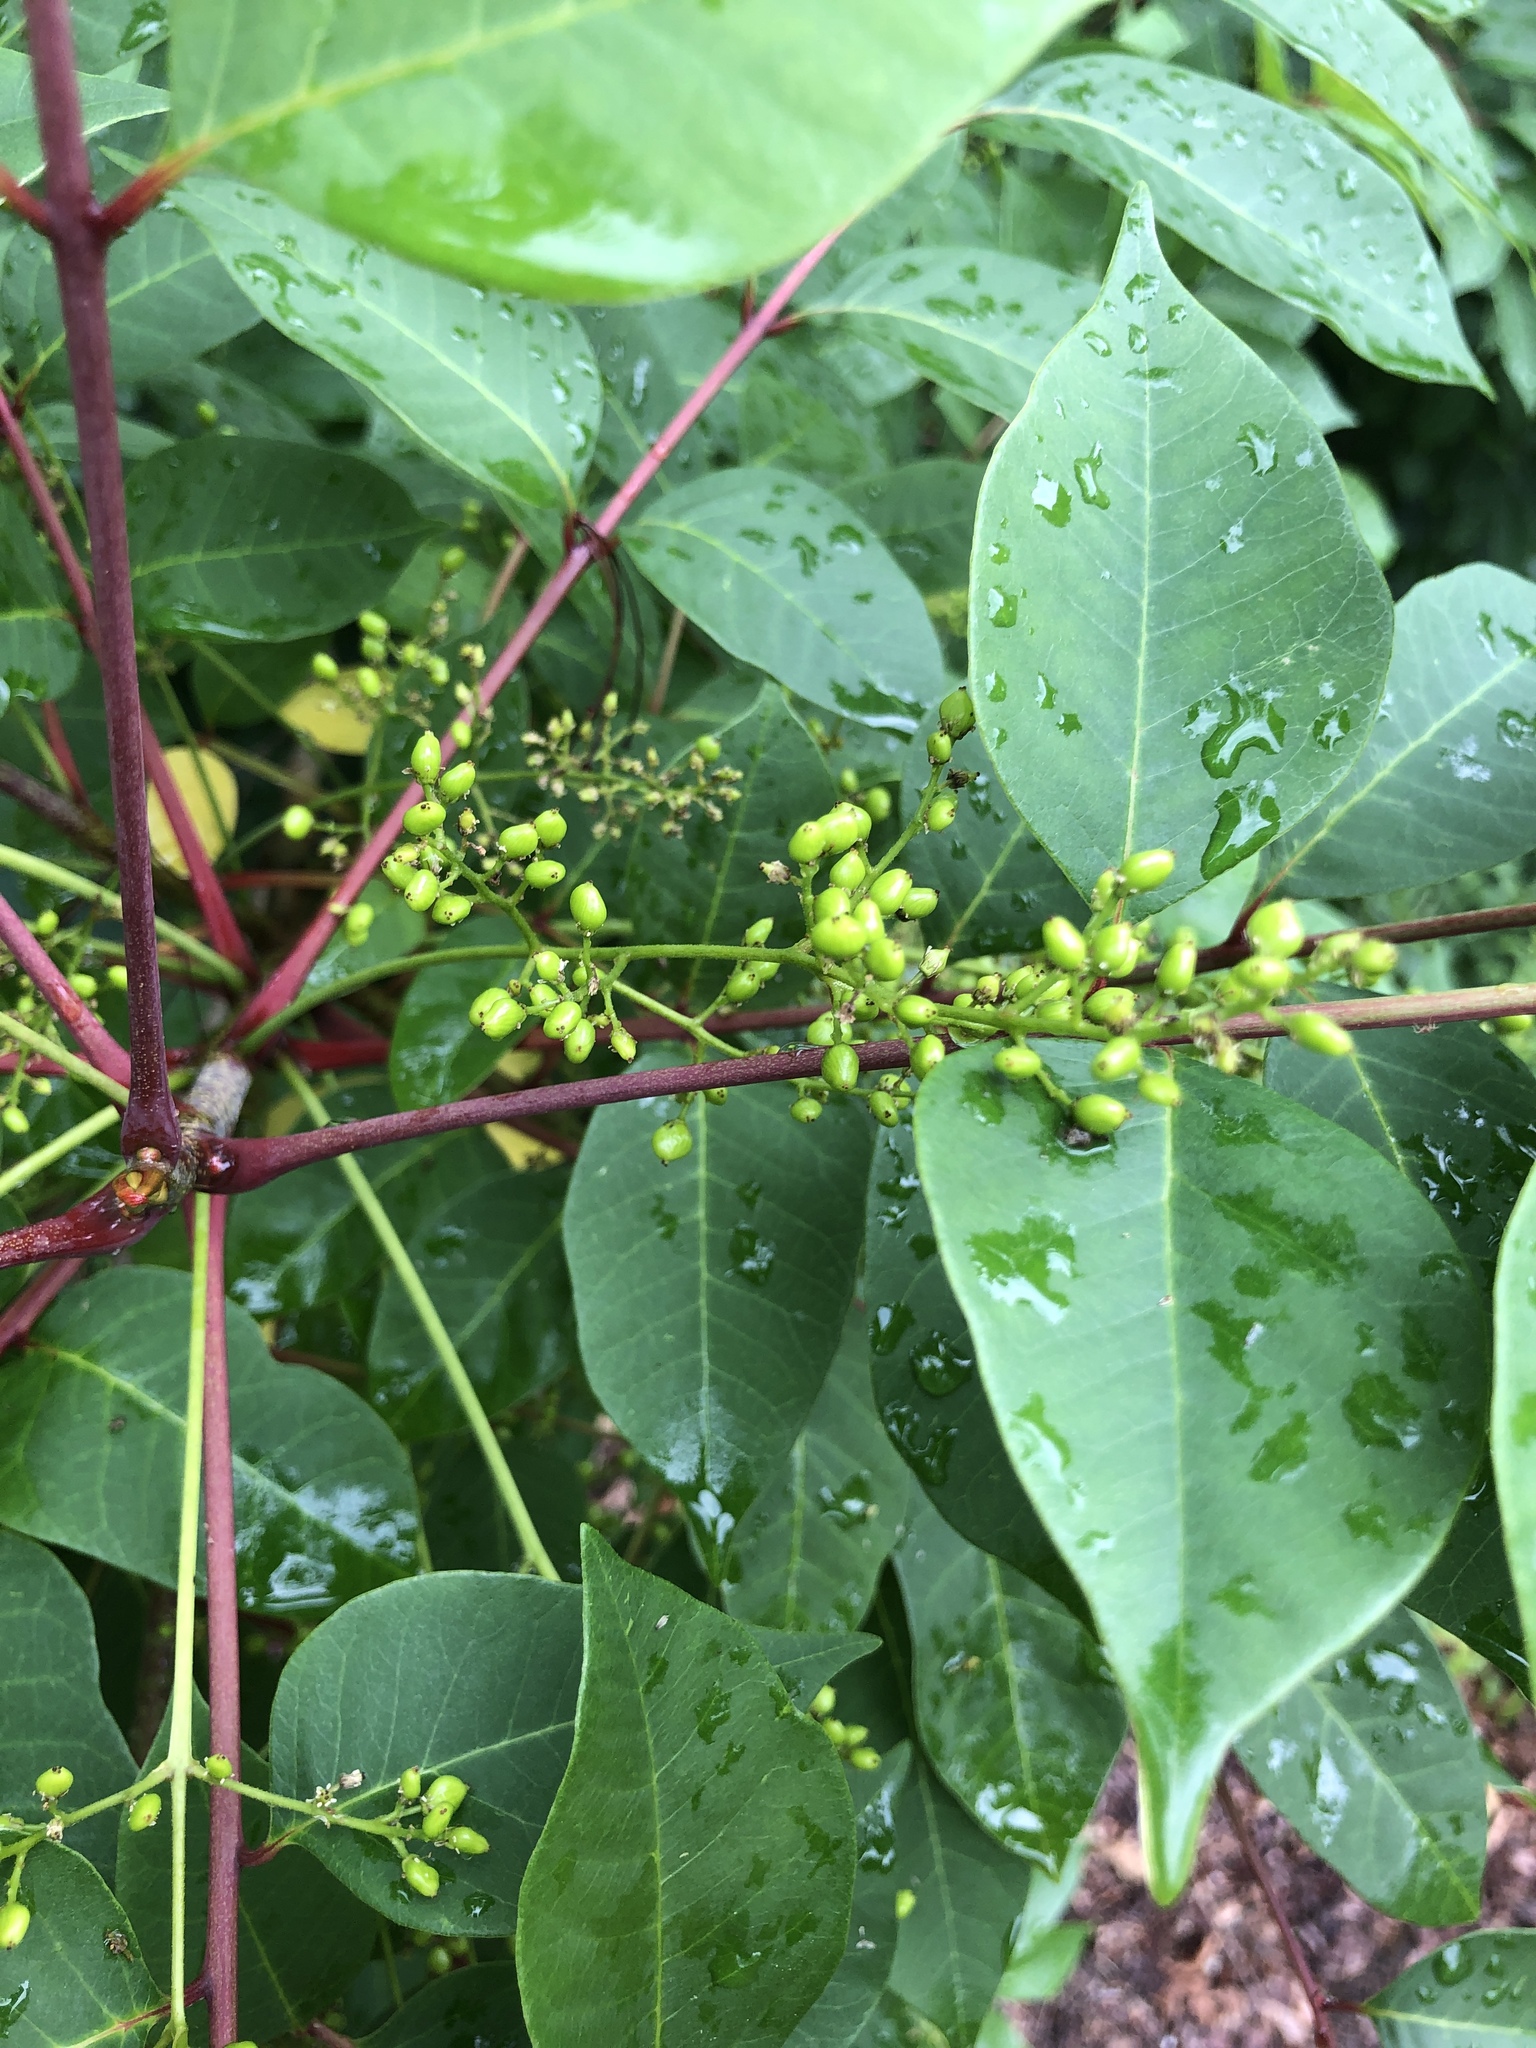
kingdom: Plantae
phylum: Tracheophyta
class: Magnoliopsida
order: Sapindales
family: Anacardiaceae
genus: Toxicodendron
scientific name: Toxicodendron vernix
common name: Poison sumac
